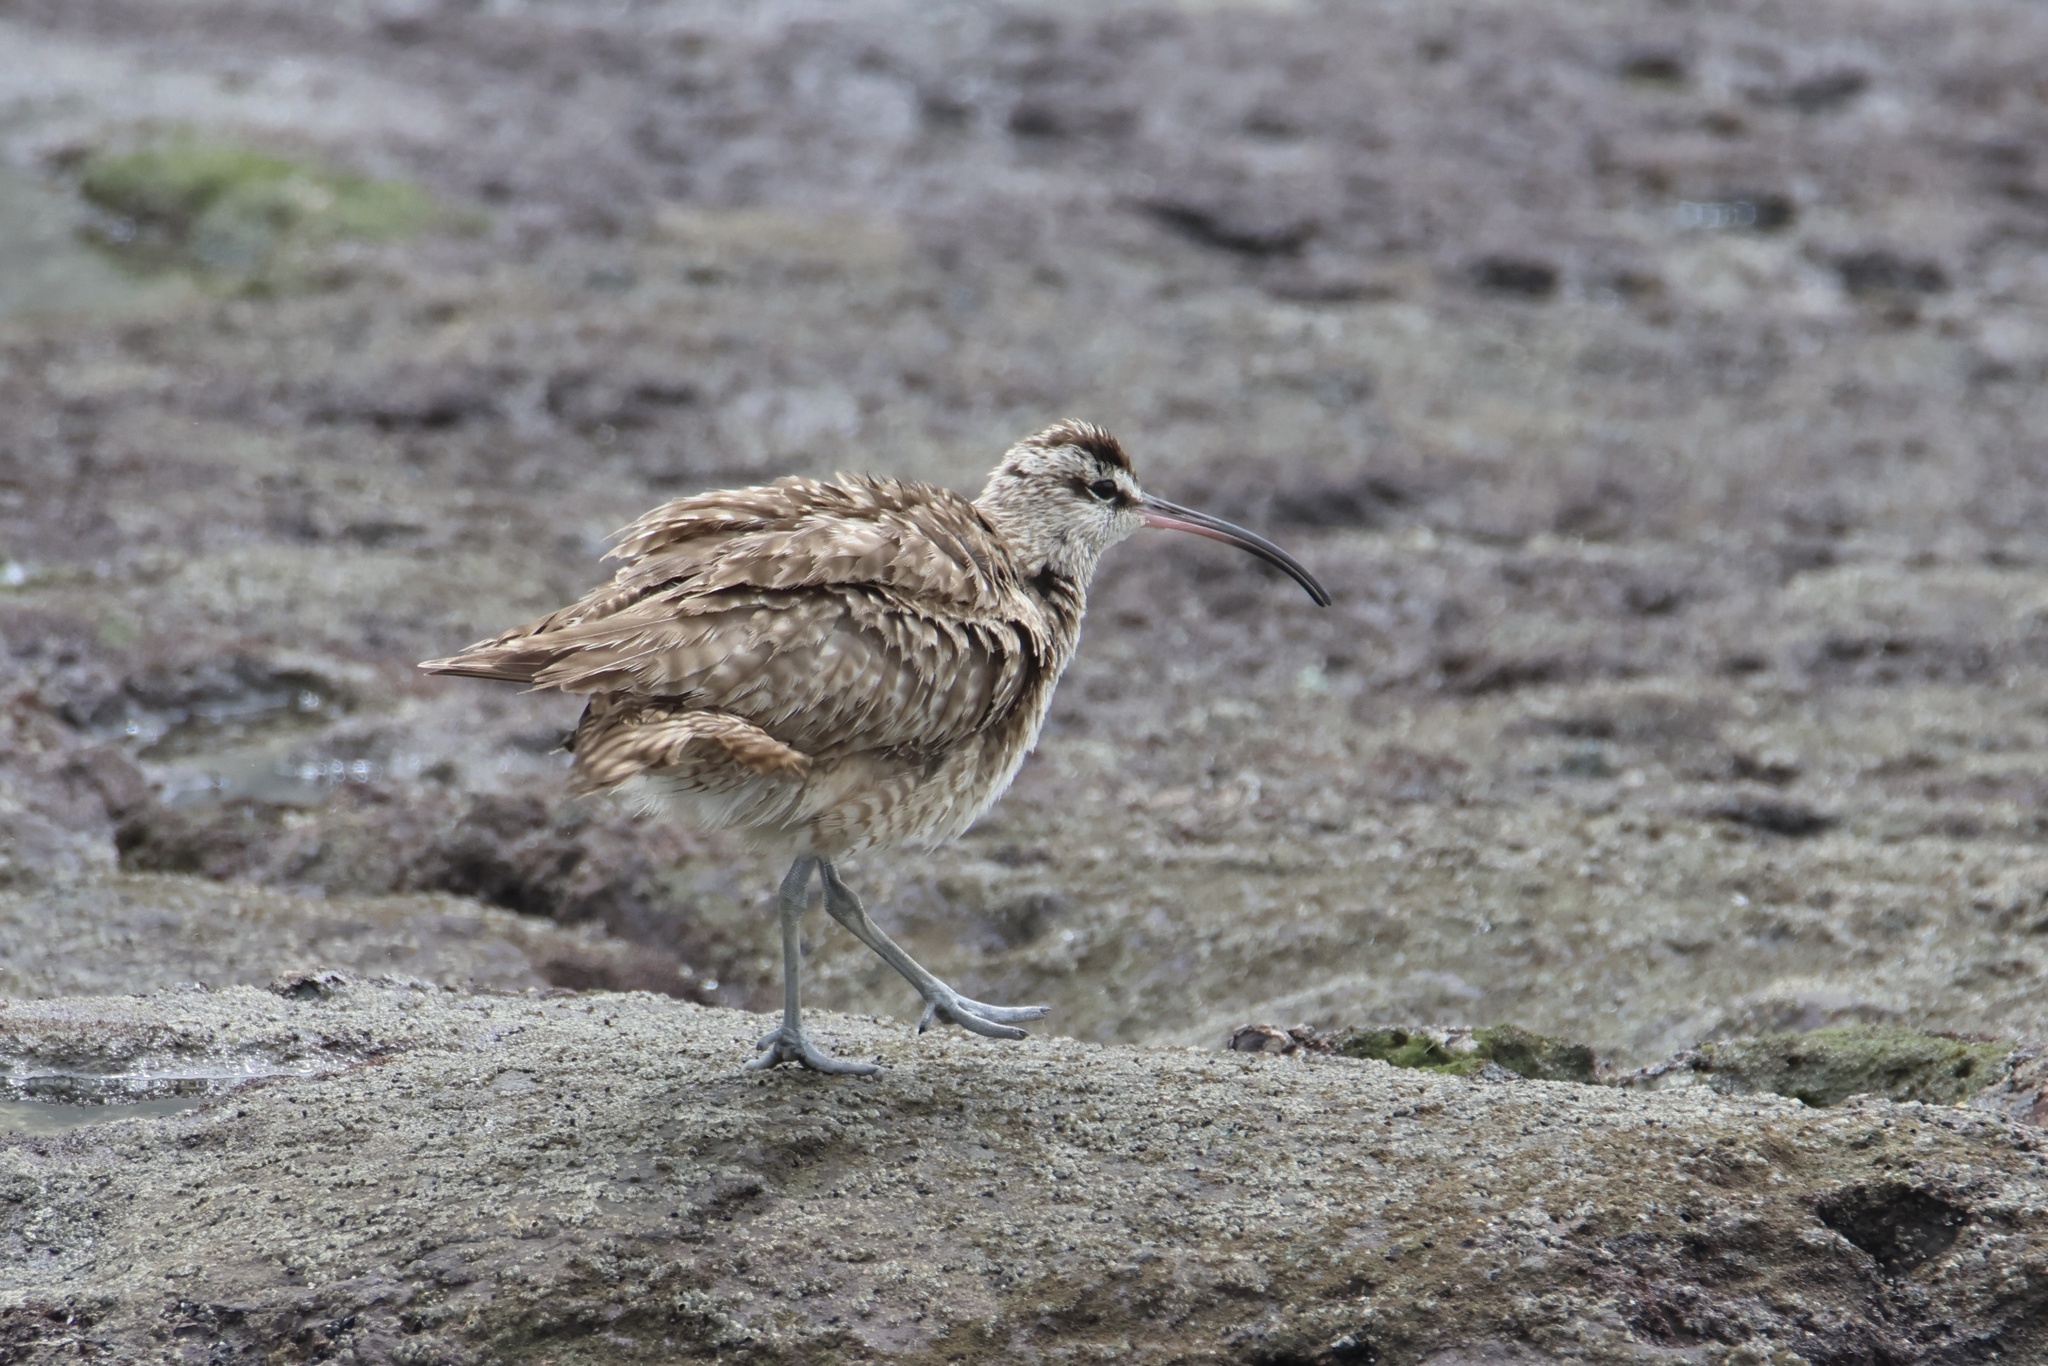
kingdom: Animalia
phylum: Chordata
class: Aves
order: Charadriiformes
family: Scolopacidae
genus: Numenius
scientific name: Numenius phaeopus
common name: Whimbrel
